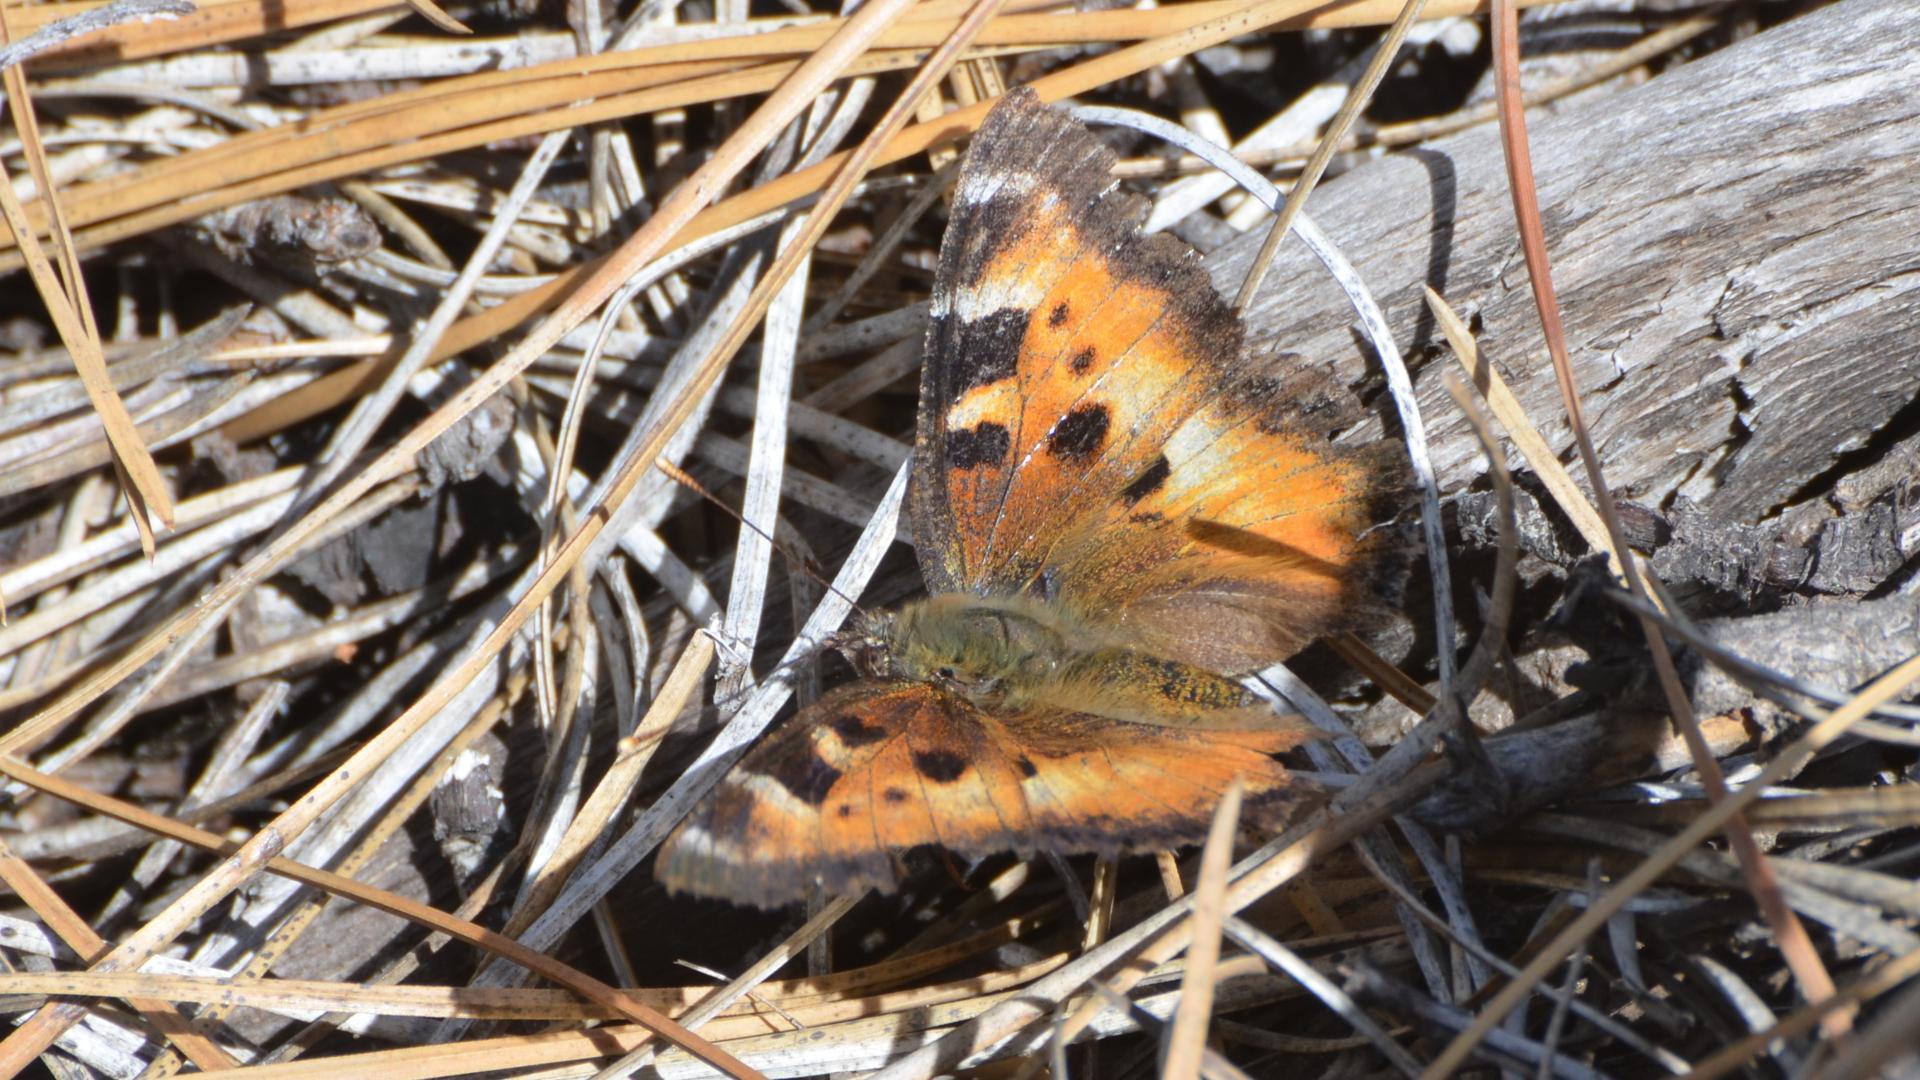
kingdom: Animalia
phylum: Arthropoda
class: Insecta
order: Lepidoptera
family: Nymphalidae
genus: Nymphalis
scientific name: Nymphalis californica
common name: California tortoiseshell
